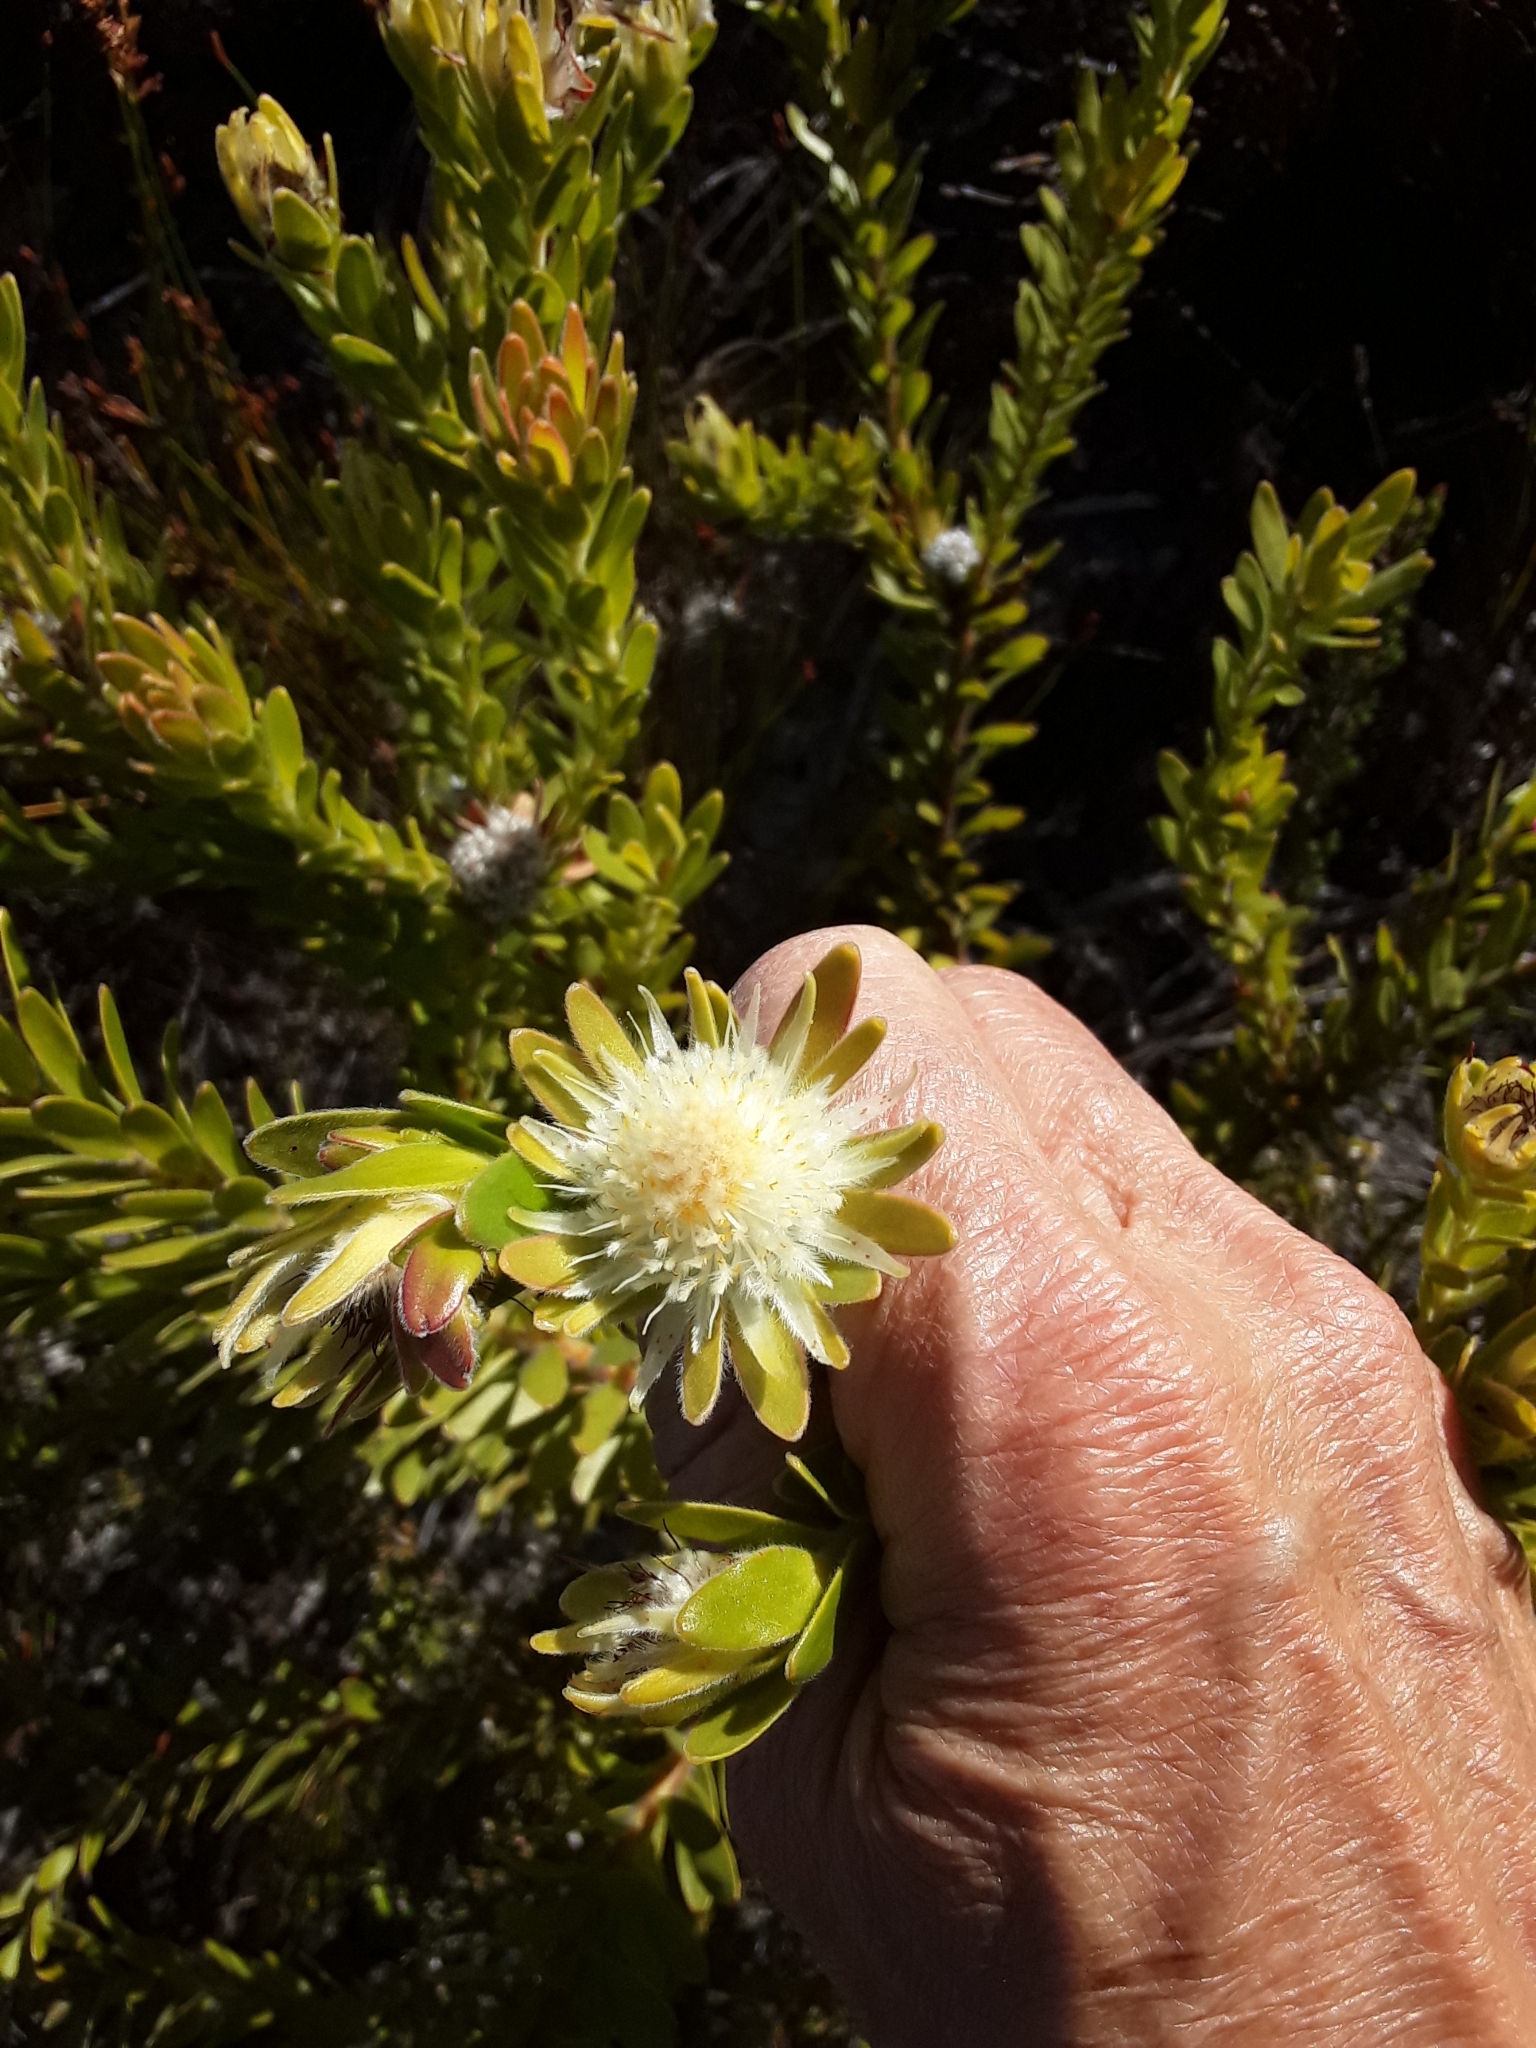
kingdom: Plantae
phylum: Tracheophyta
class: Magnoliopsida
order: Proteales
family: Proteaceae
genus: Diastella
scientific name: Diastella thymelaeoides
